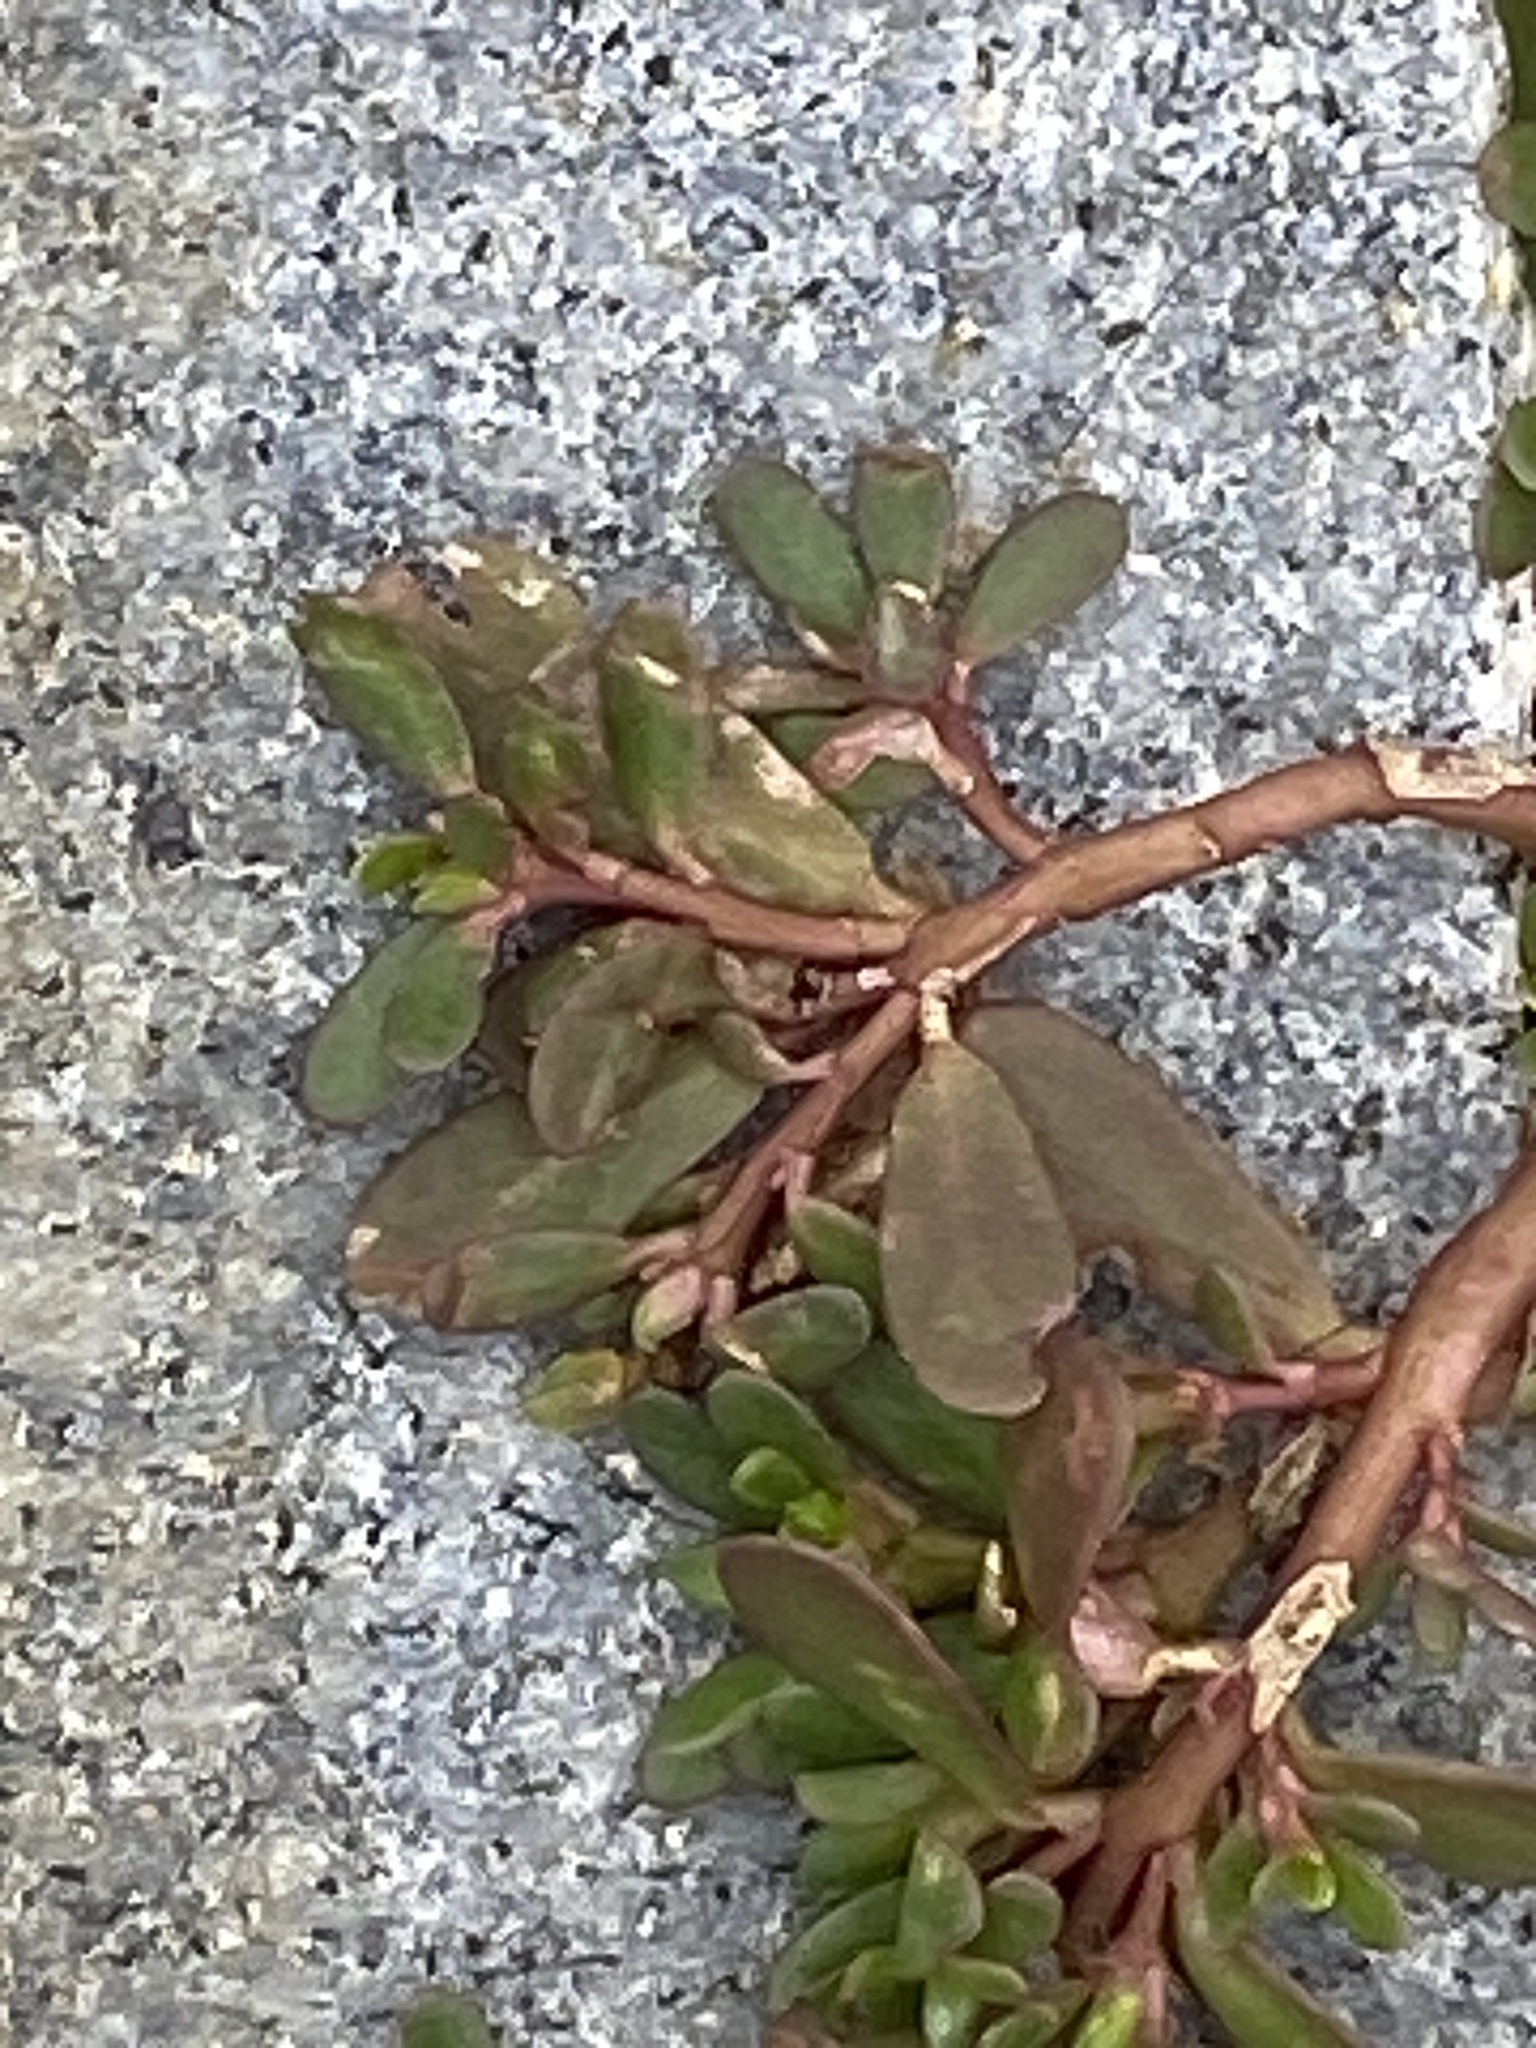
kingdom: Plantae
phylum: Tracheophyta
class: Magnoliopsida
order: Caryophyllales
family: Portulacaceae
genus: Portulaca
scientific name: Portulaca oleracea
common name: Common purslane
